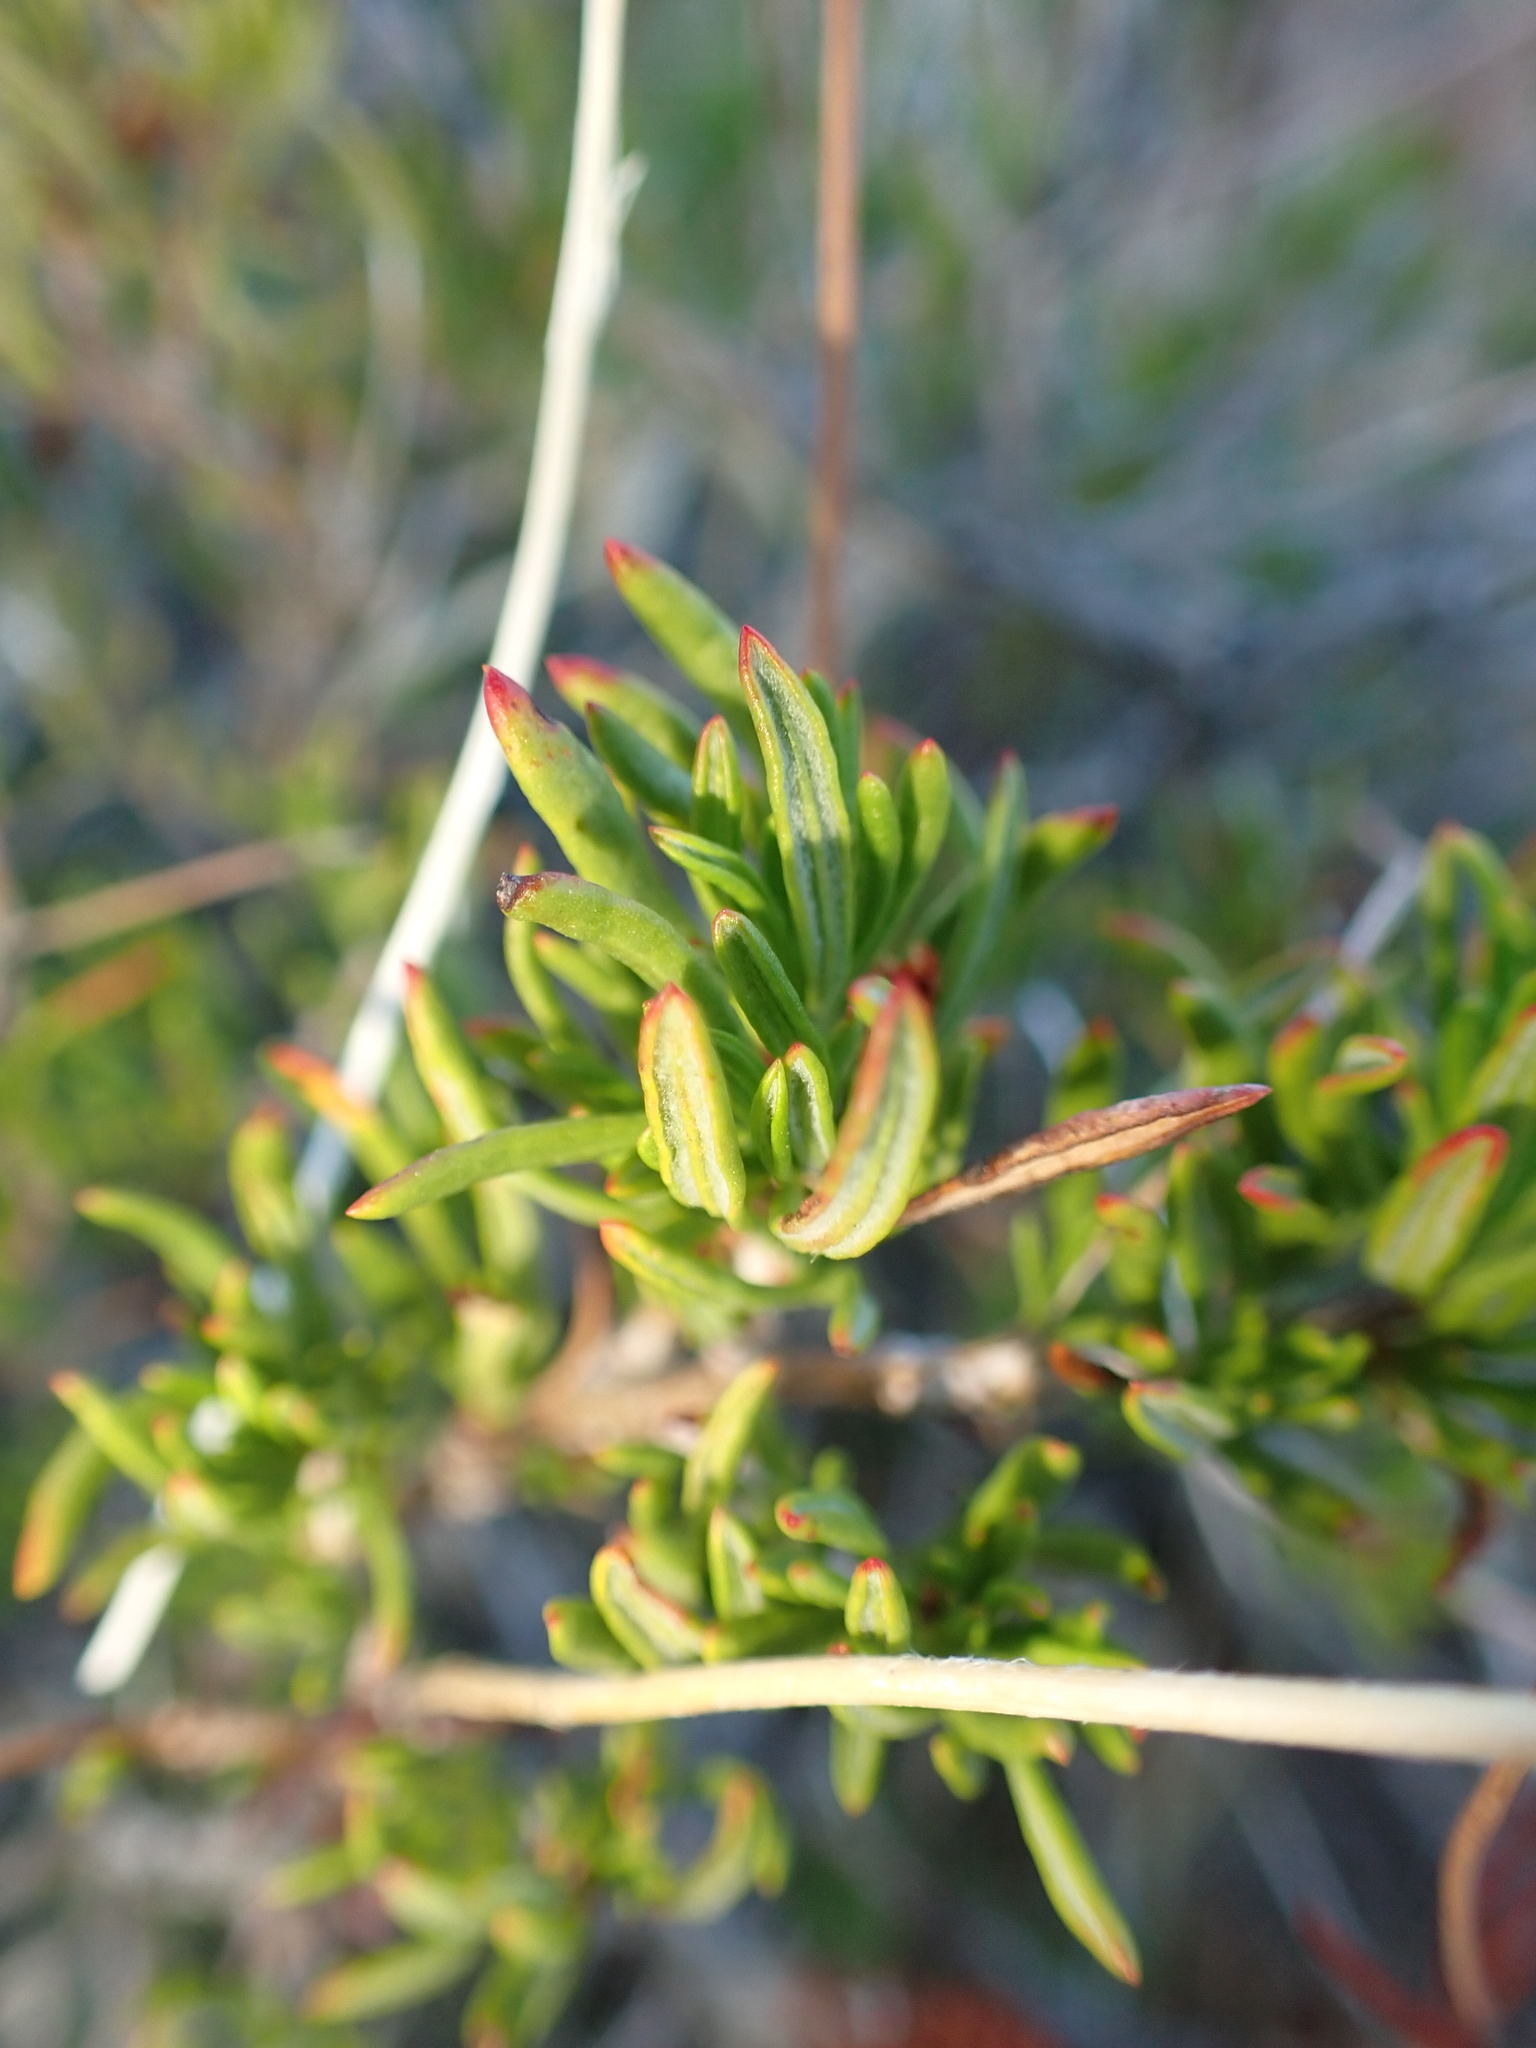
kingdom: Plantae
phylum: Tracheophyta
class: Magnoliopsida
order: Caryophyllales
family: Polygonaceae
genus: Eriogonum
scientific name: Eriogonum fasciculatum
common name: California wild buckwheat
